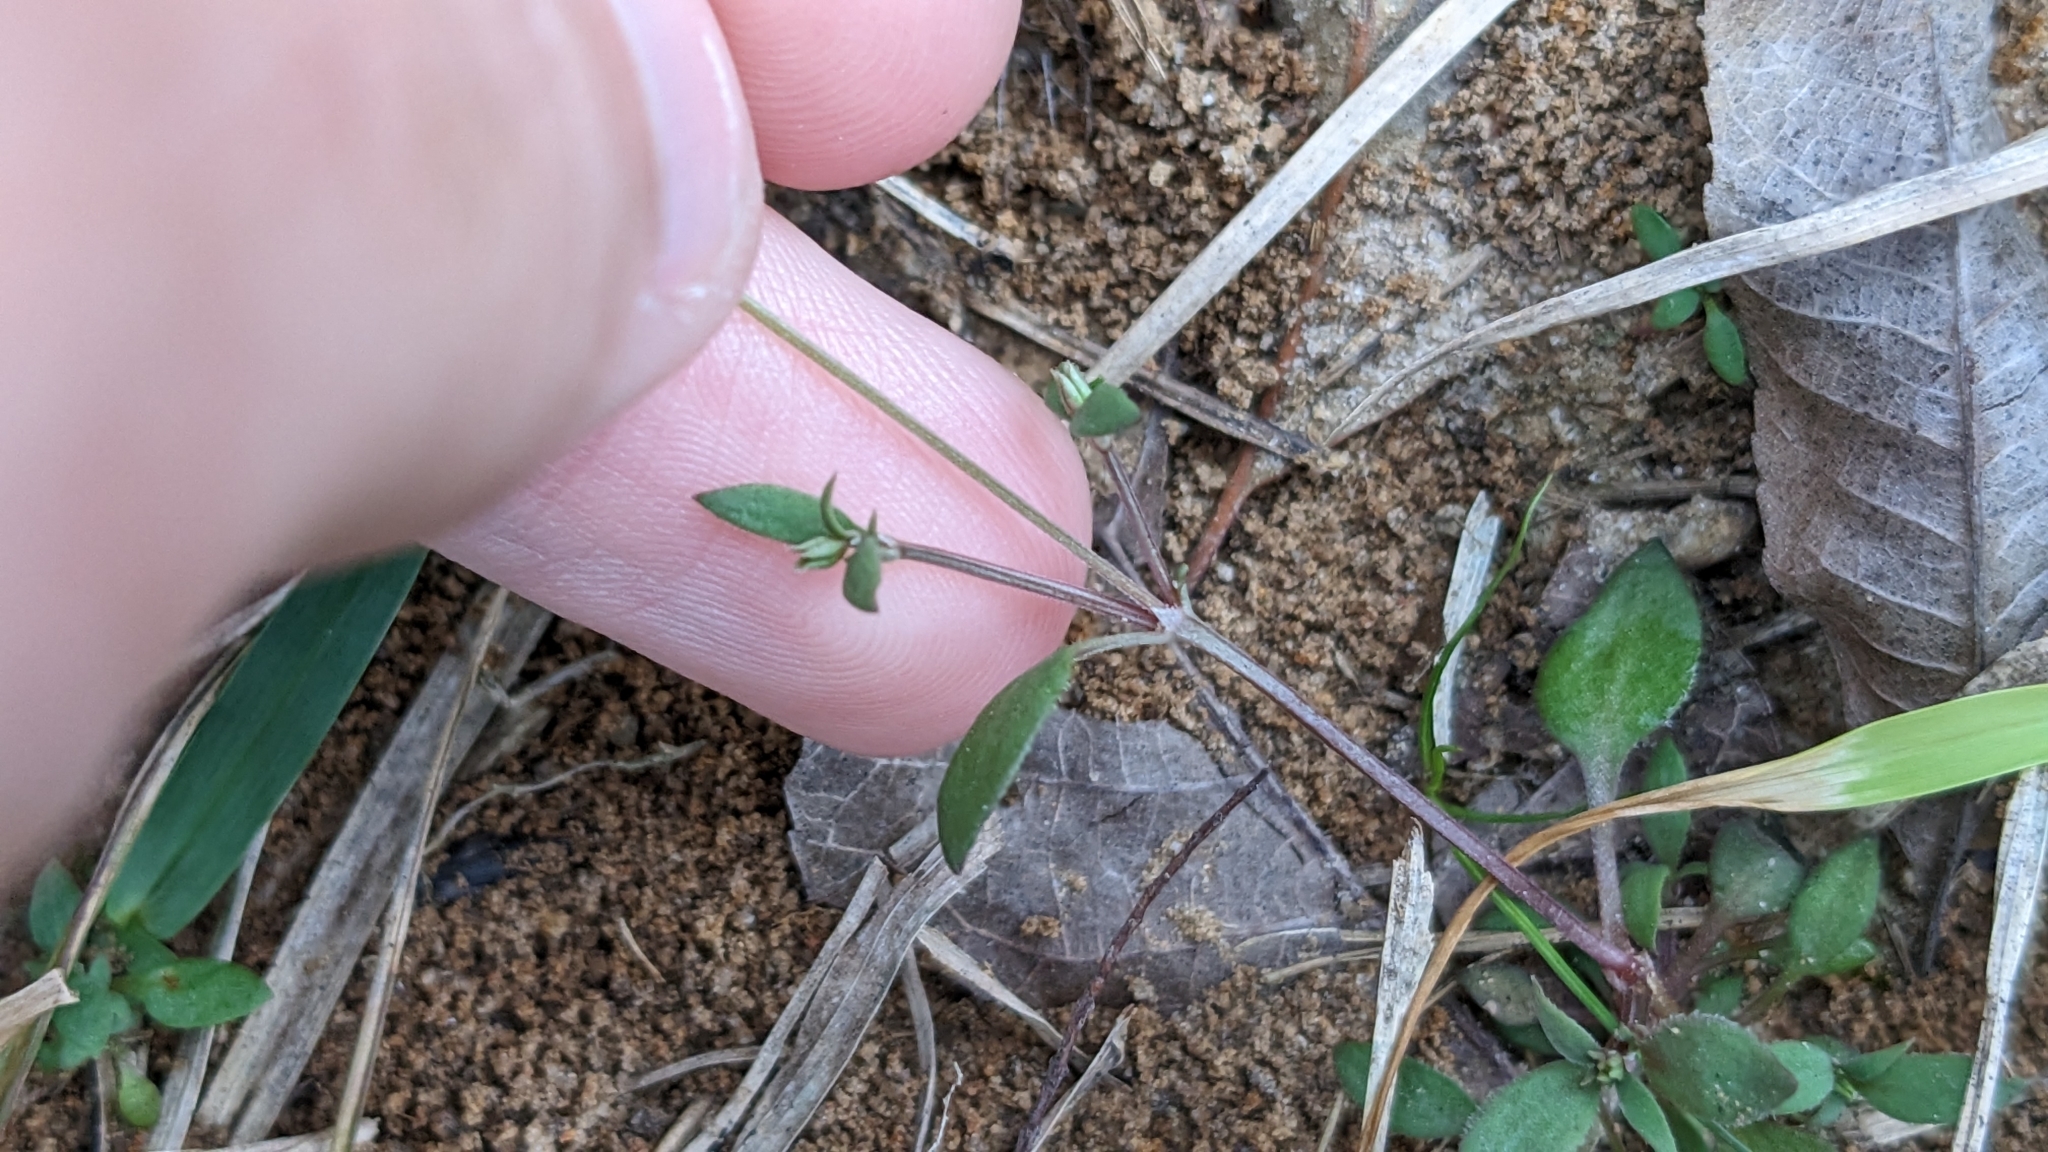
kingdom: Plantae
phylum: Tracheophyta
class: Magnoliopsida
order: Gentianales
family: Rubiaceae
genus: Houstonia
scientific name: Houstonia pusilla
